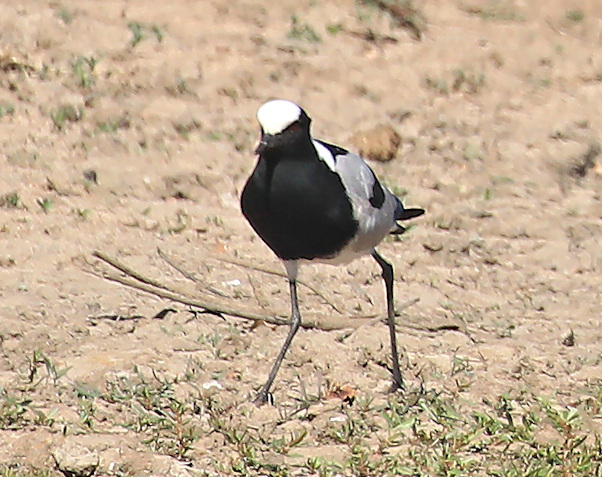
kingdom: Animalia
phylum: Chordata
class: Aves
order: Charadriiformes
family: Charadriidae
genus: Vanellus
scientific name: Vanellus armatus
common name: Blacksmith lapwing
